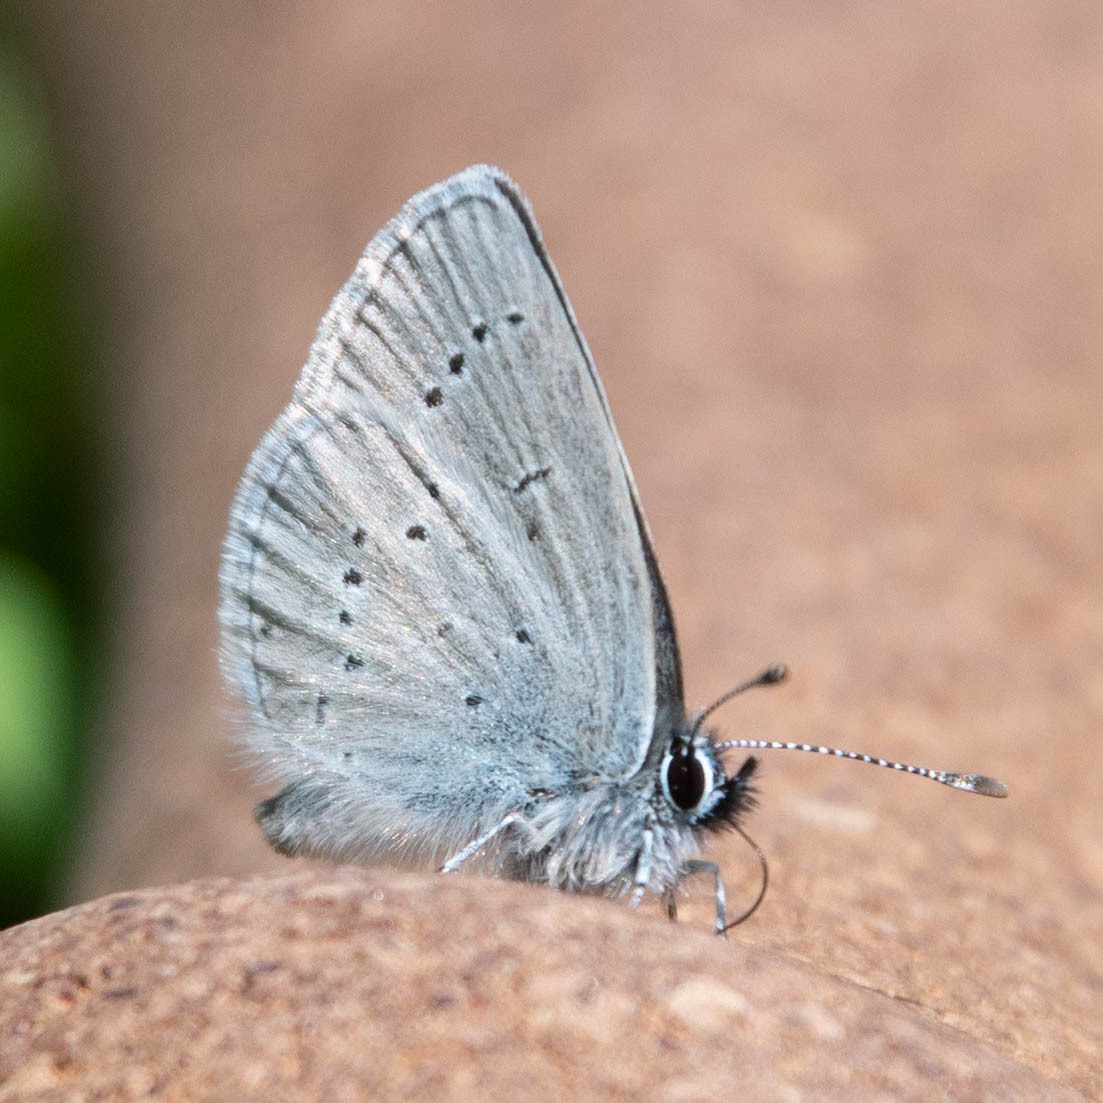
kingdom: Animalia
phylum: Arthropoda
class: Insecta
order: Lepidoptera
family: Lycaenidae
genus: Cupido
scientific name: Cupido minimus
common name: Small blue
